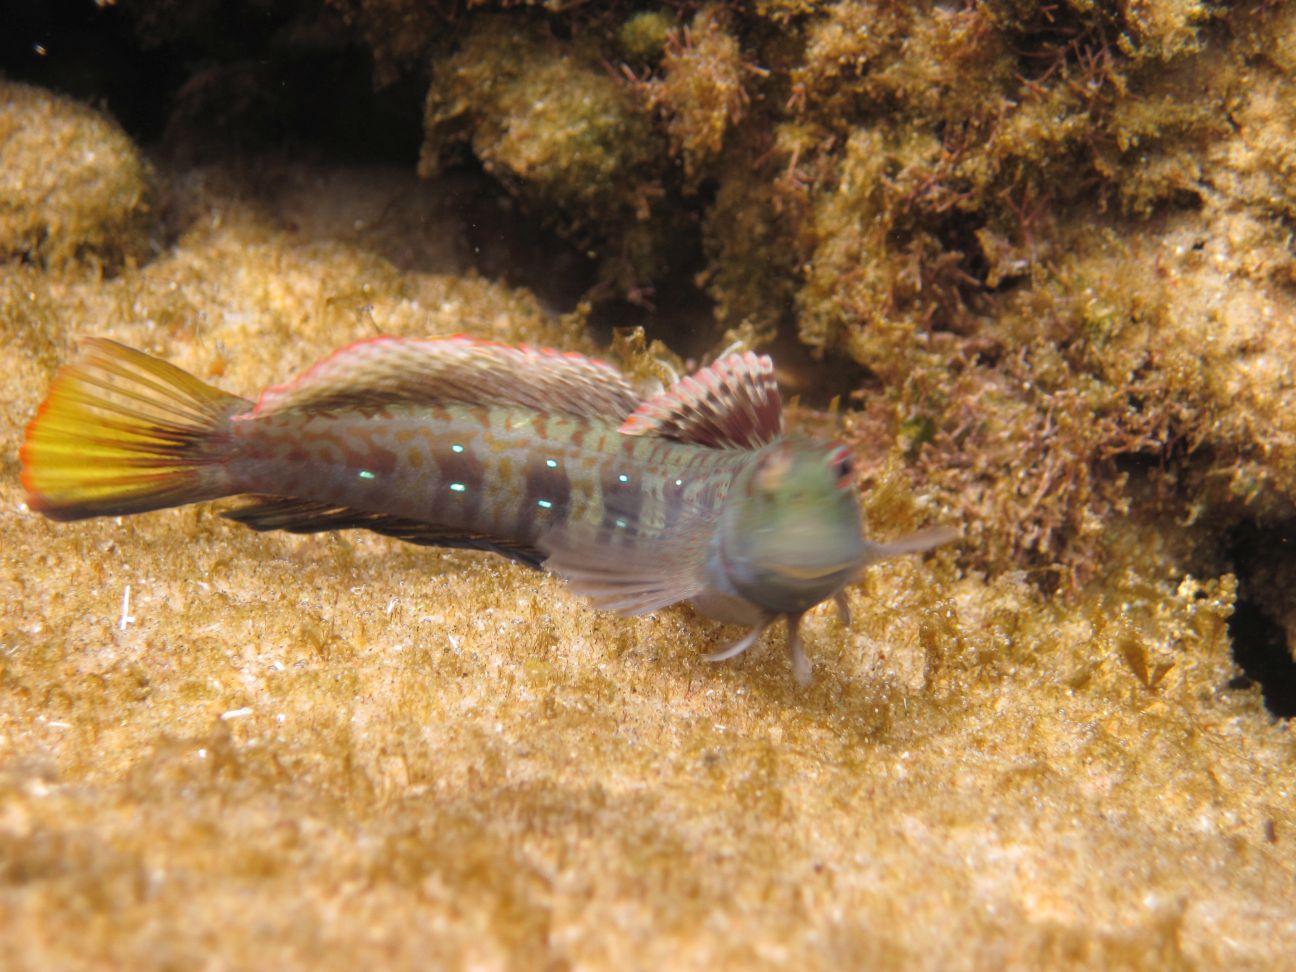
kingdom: Animalia
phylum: Chordata
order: Perciformes
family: Blenniidae
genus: Blenniella
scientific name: Blenniella periophthalmus
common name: Blue-dashed rockskipper
